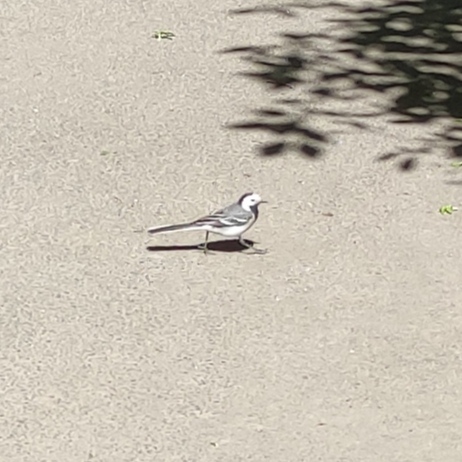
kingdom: Animalia
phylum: Chordata
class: Aves
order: Passeriformes
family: Motacillidae
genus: Motacilla
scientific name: Motacilla alba
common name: White wagtail
